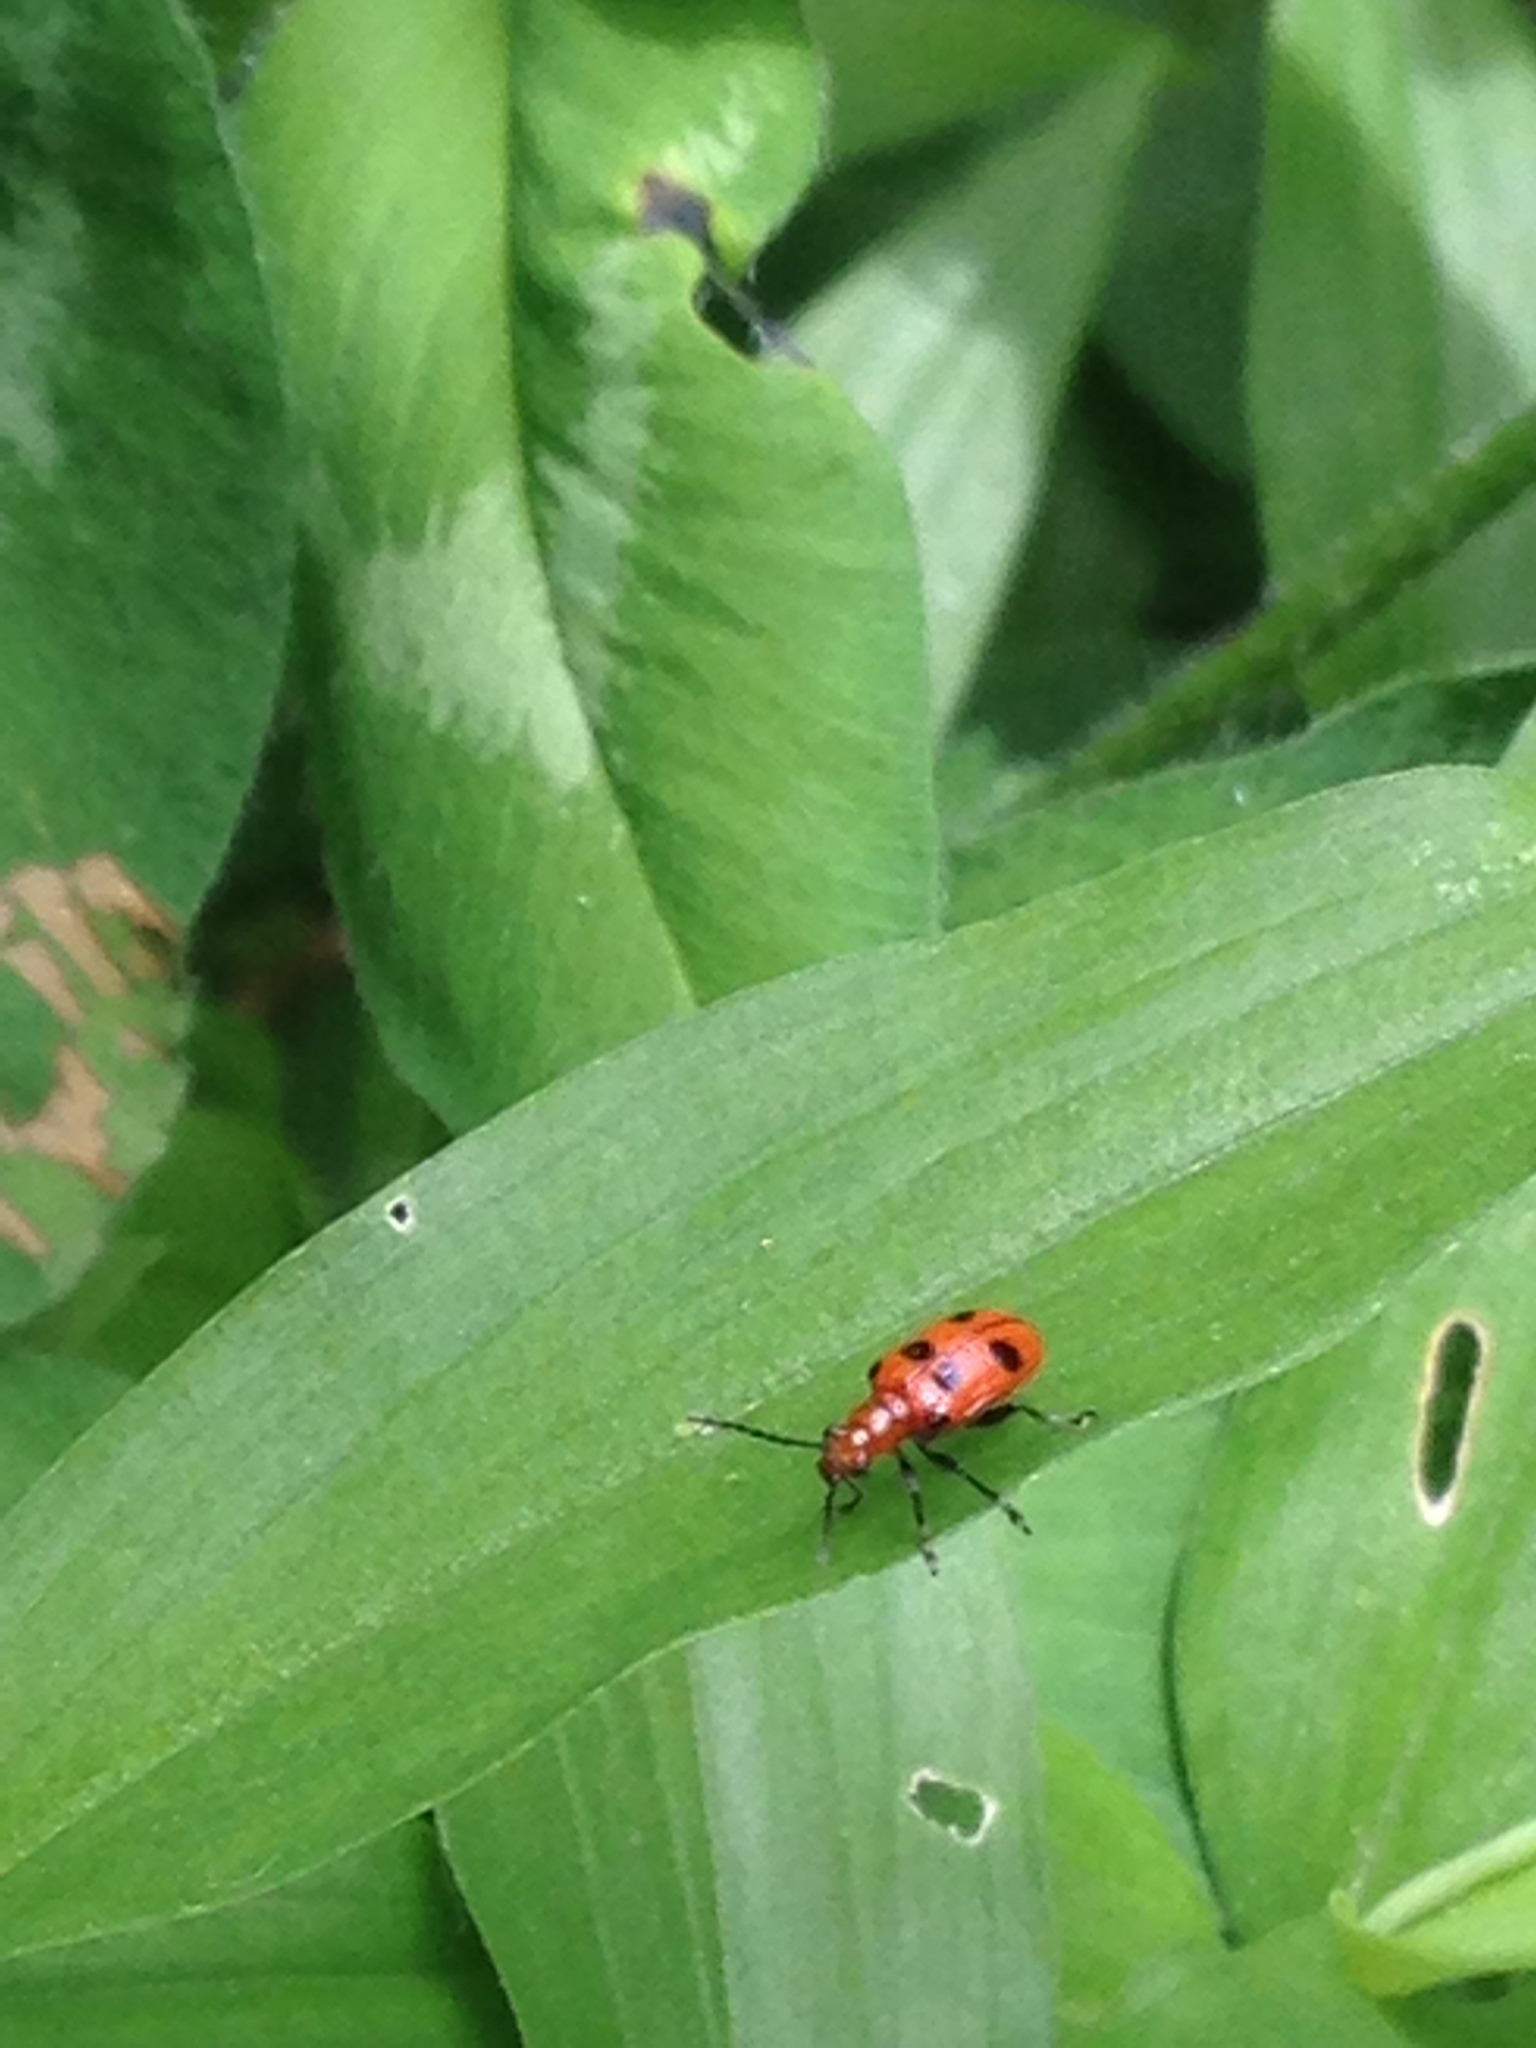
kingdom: Animalia
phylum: Arthropoda
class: Insecta
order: Coleoptera
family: Chrysomelidae
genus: Neolema
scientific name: Neolema sexpunctata
